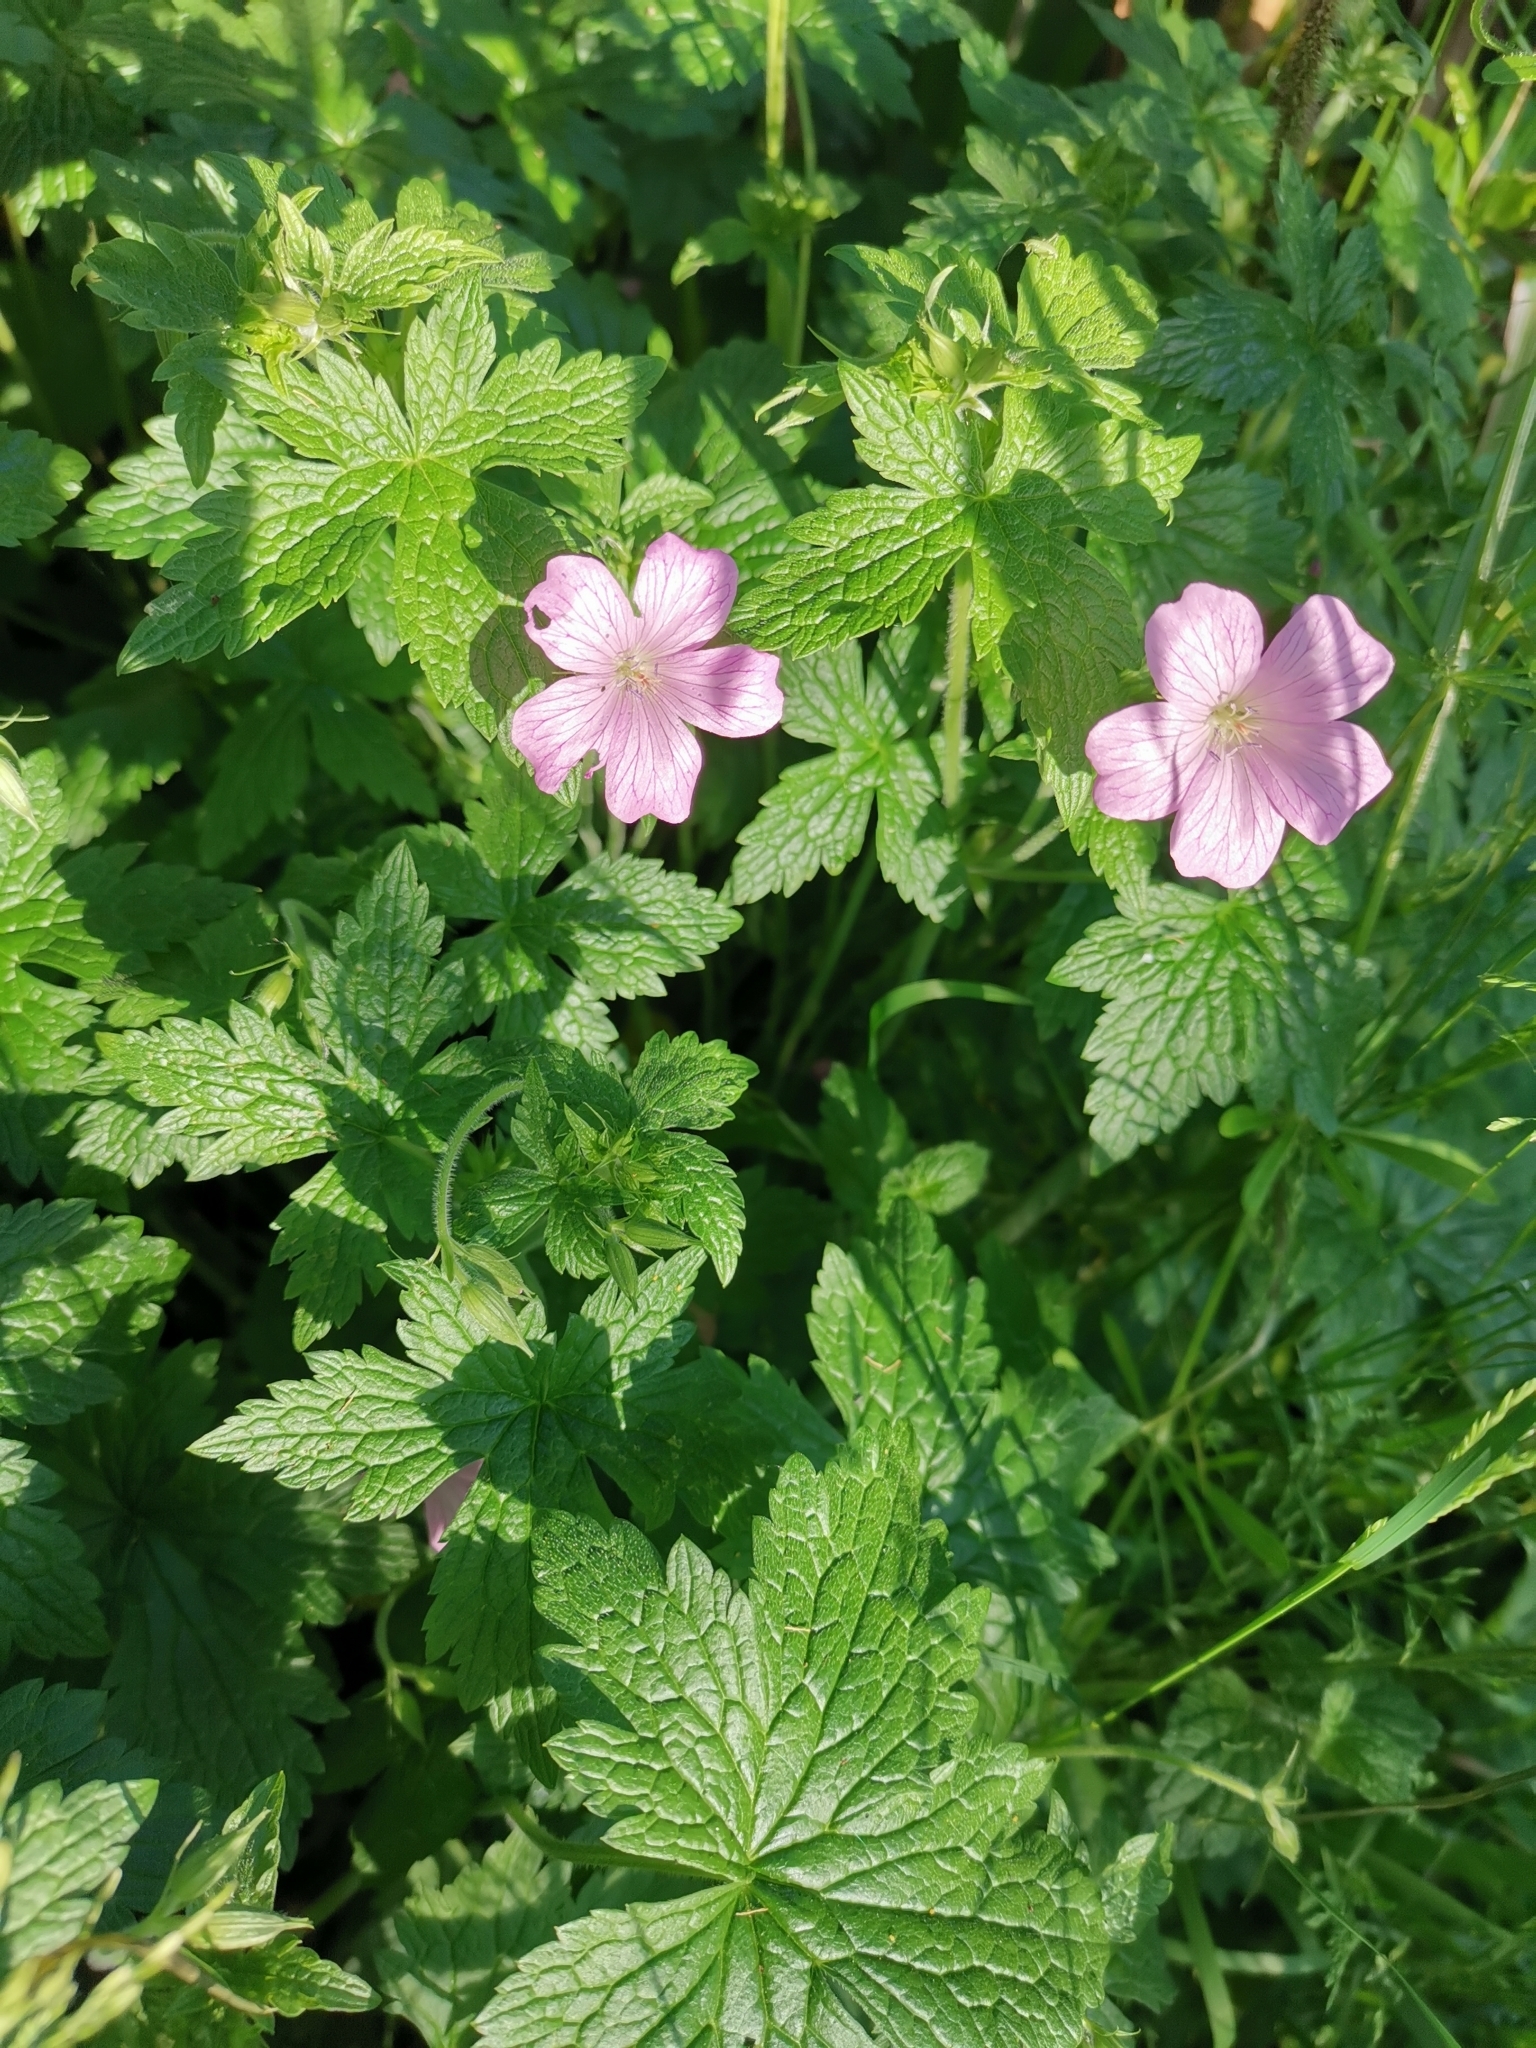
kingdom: Plantae
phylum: Tracheophyta
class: Magnoliopsida
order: Geraniales
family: Geraniaceae
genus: Geranium
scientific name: Geranium oxonianum
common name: Druce's crane's-bill
